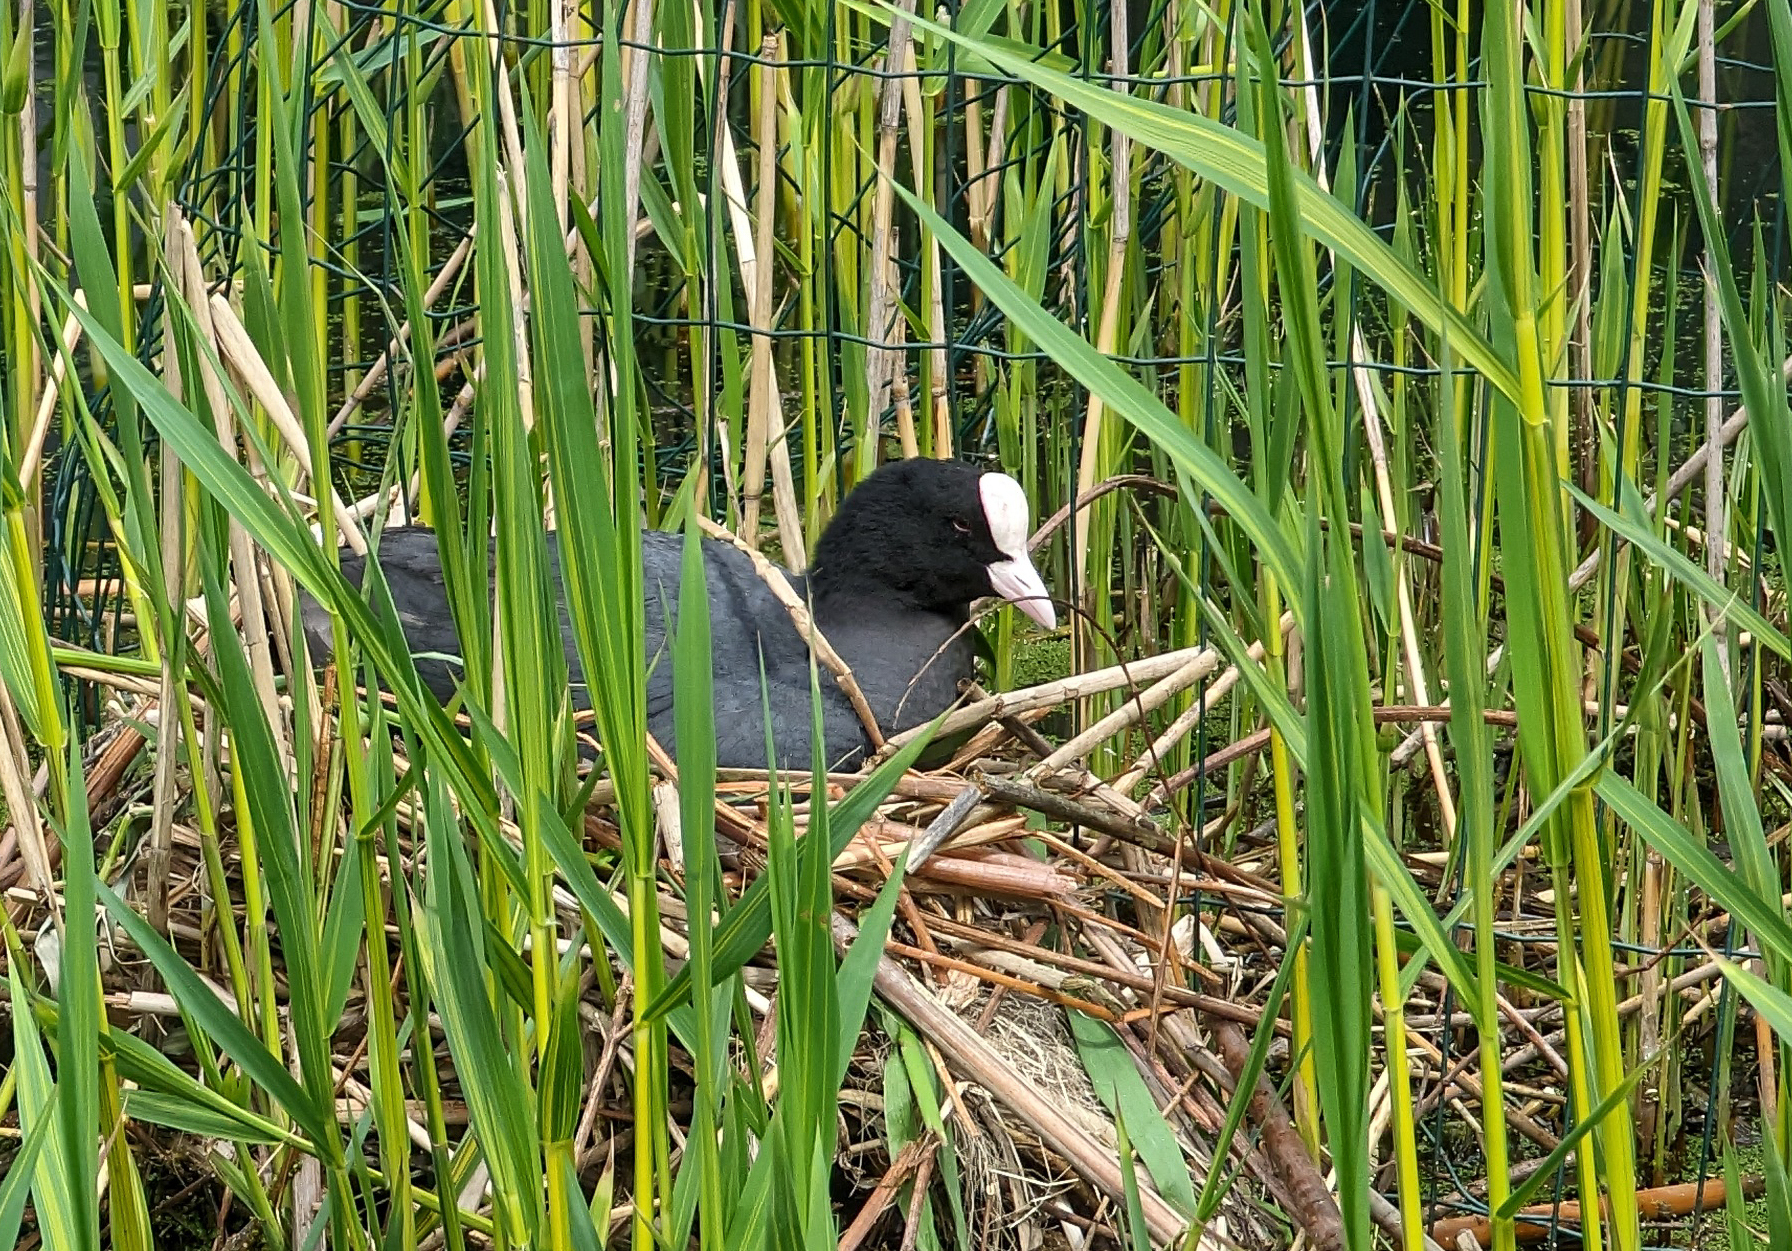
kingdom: Animalia
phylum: Chordata
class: Aves
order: Gruiformes
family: Rallidae
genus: Fulica
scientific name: Fulica atra
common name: Eurasian coot
